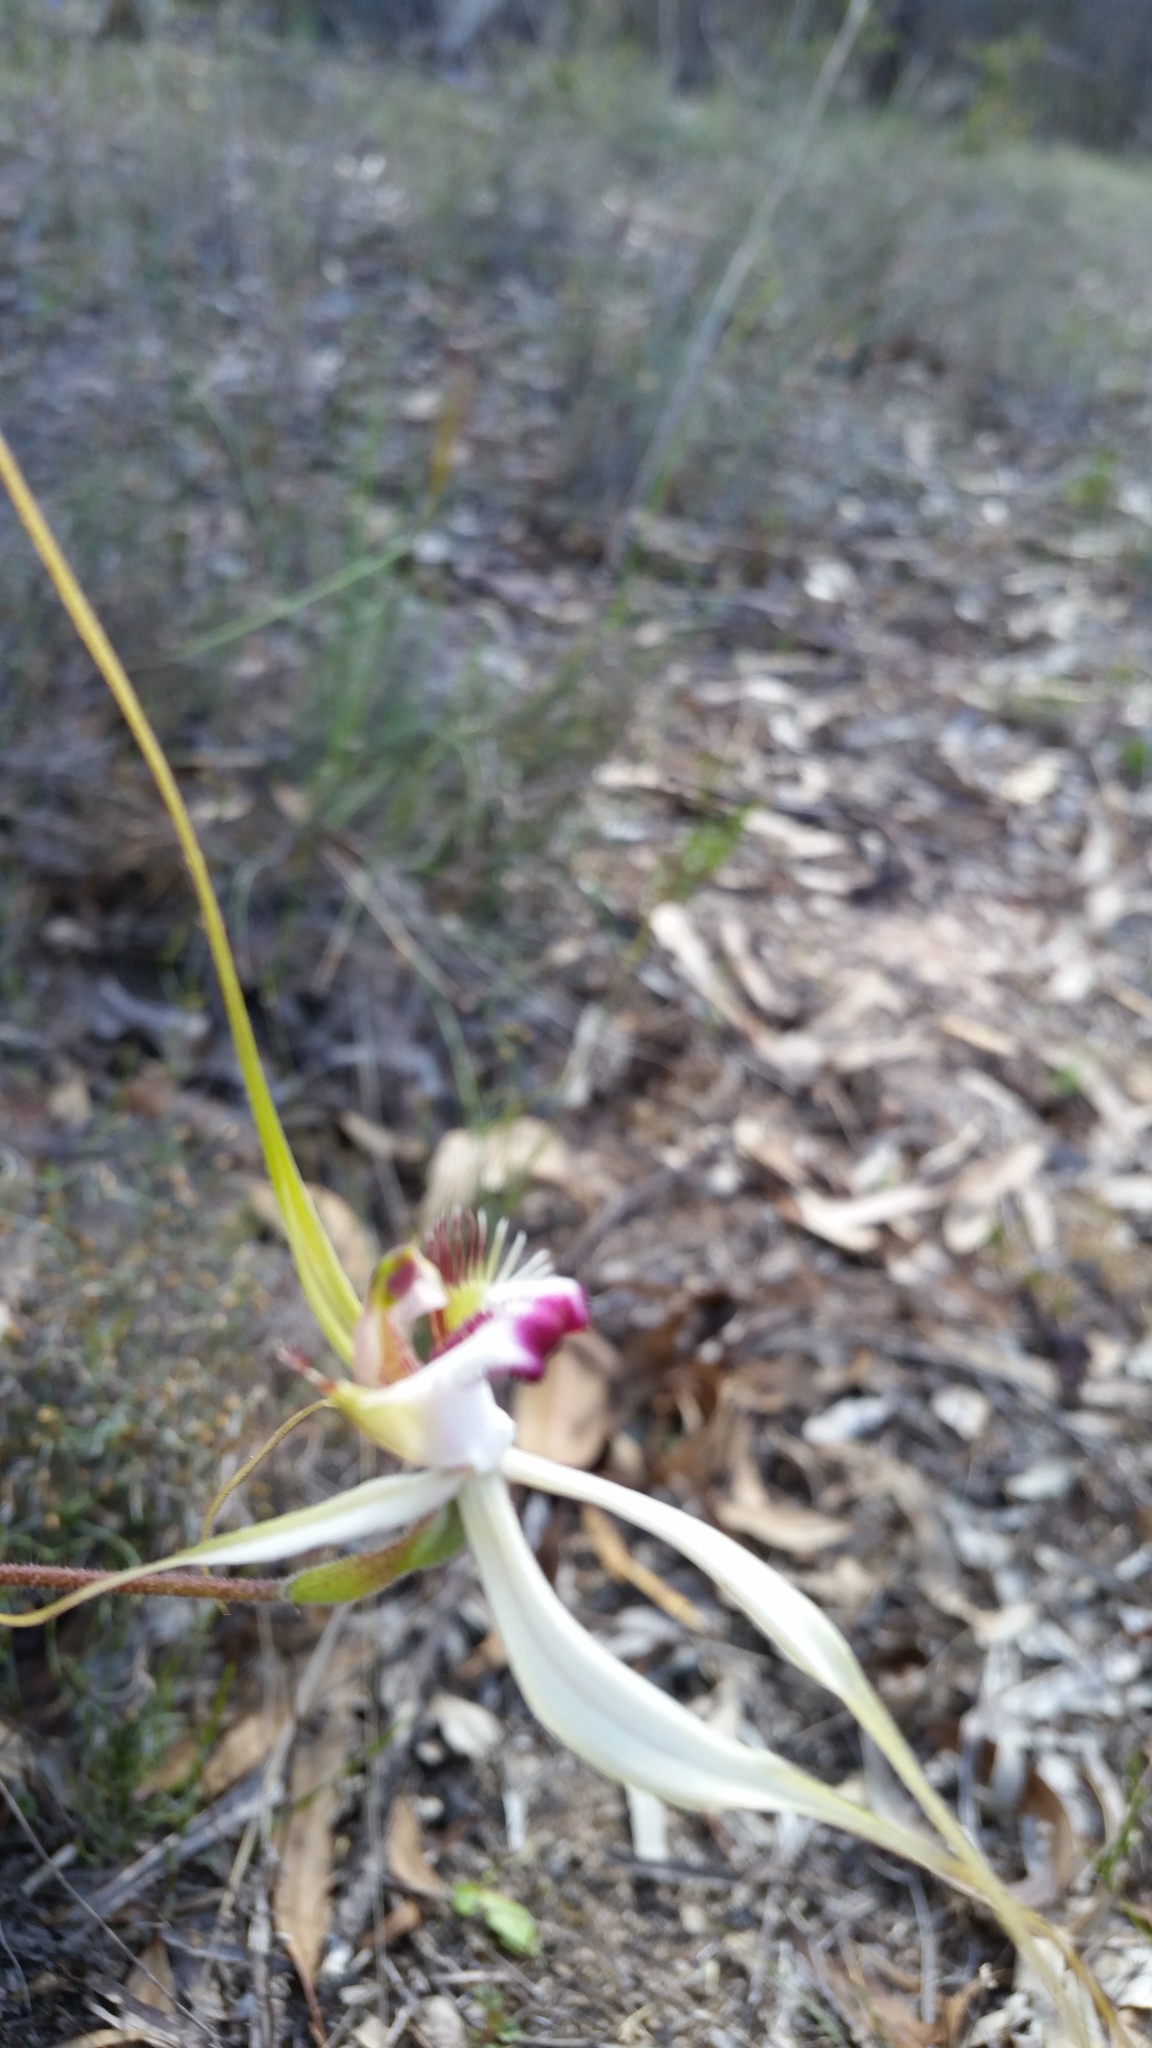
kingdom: Plantae
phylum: Tracheophyta
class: Liliopsida
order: Asparagales
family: Orchidaceae
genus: Caladenia
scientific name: Caladenia cala
